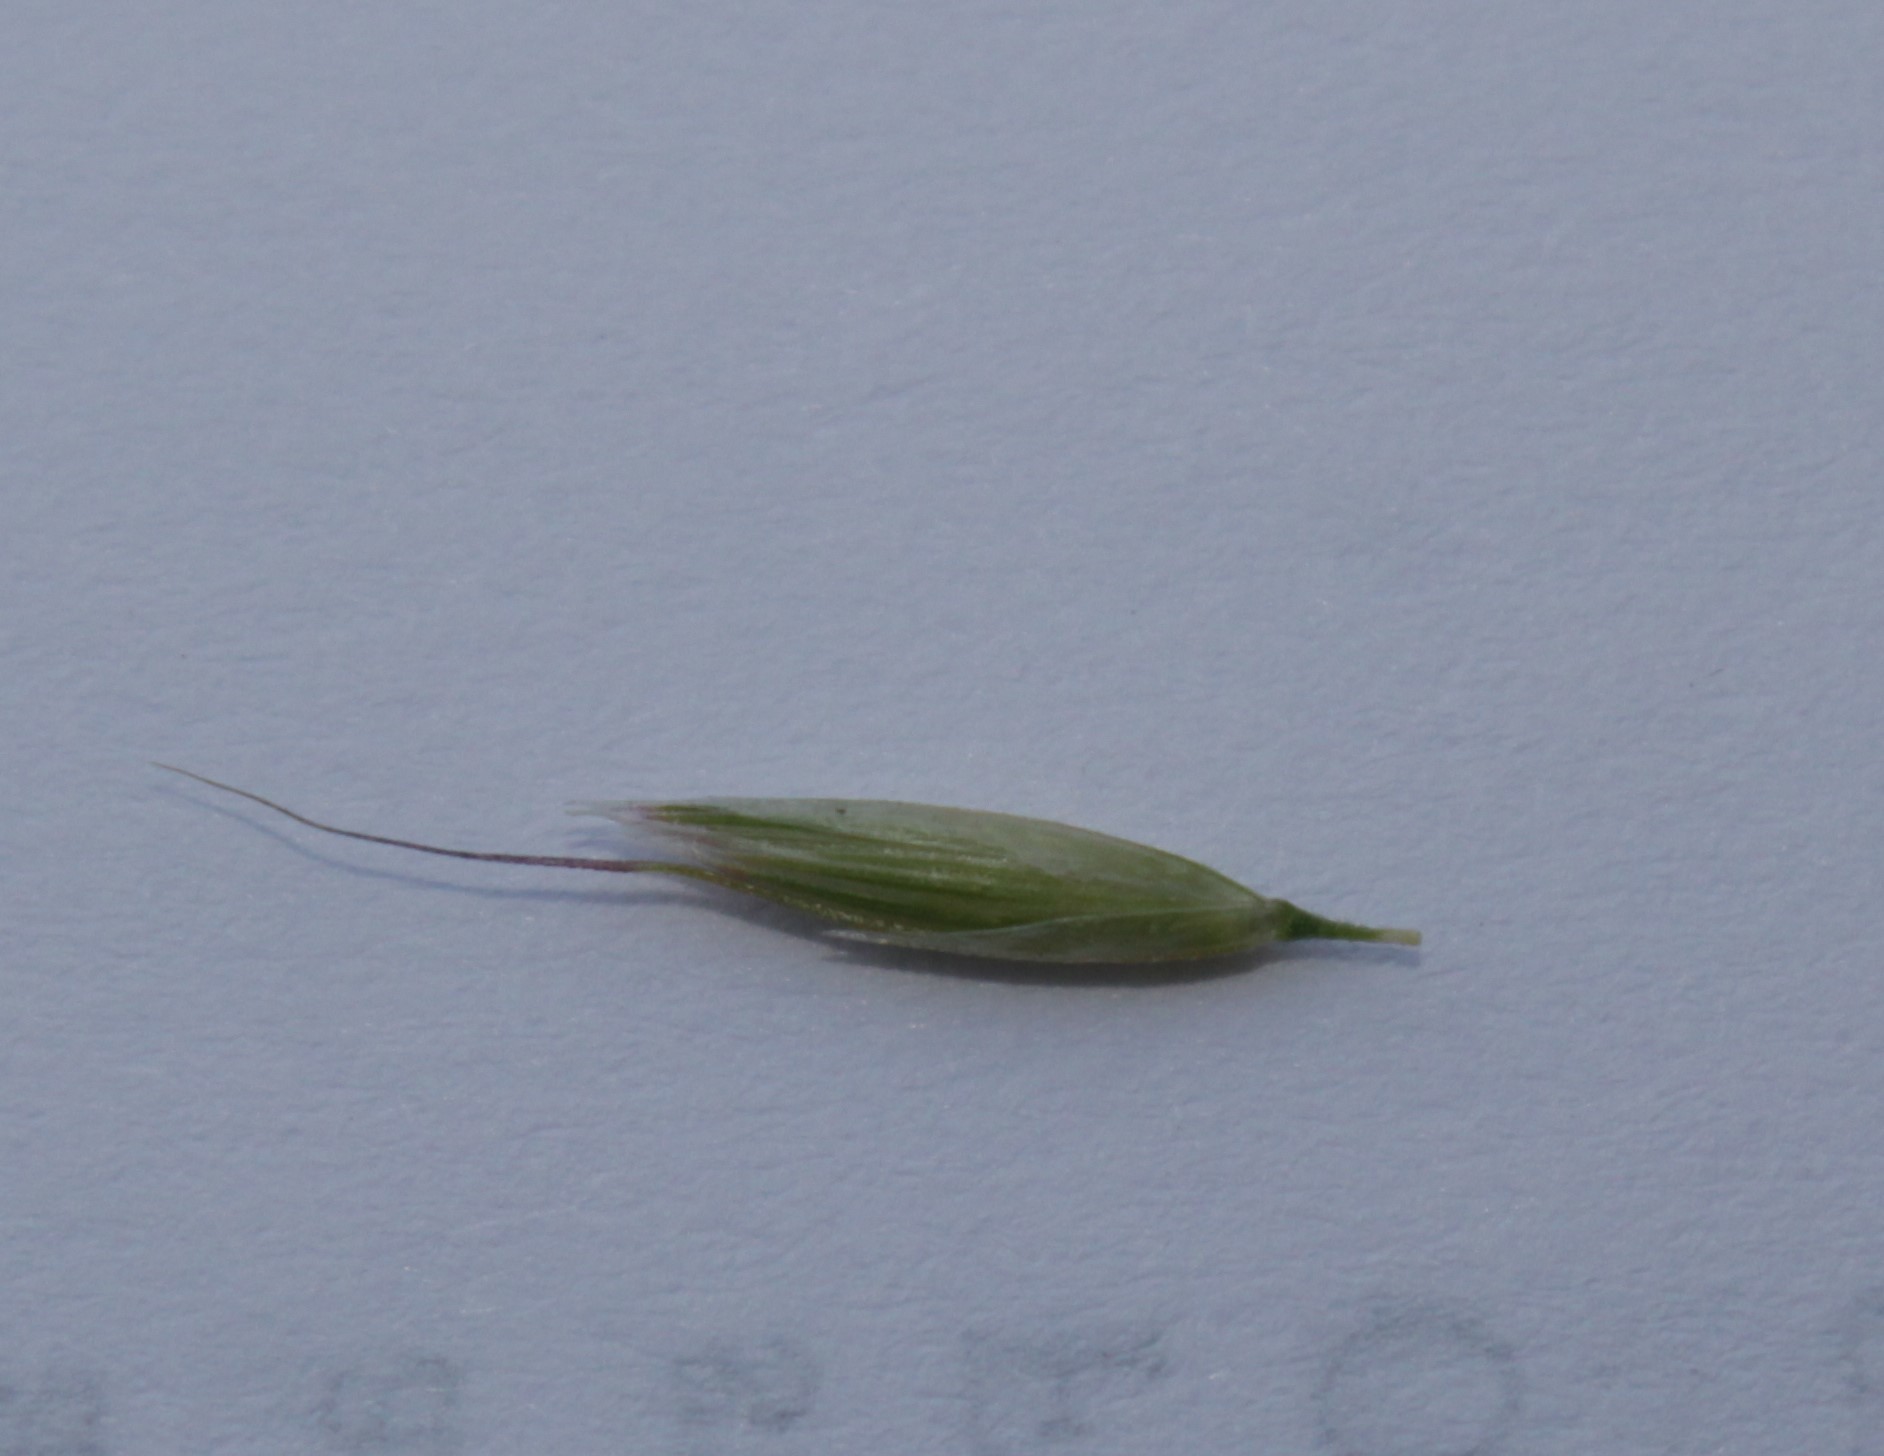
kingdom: Plantae
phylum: Tracheophyta
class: Liliopsida
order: Poales
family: Poaceae
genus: Arrhenatherum
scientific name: Arrhenatherum elatius
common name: Tall oatgrass
